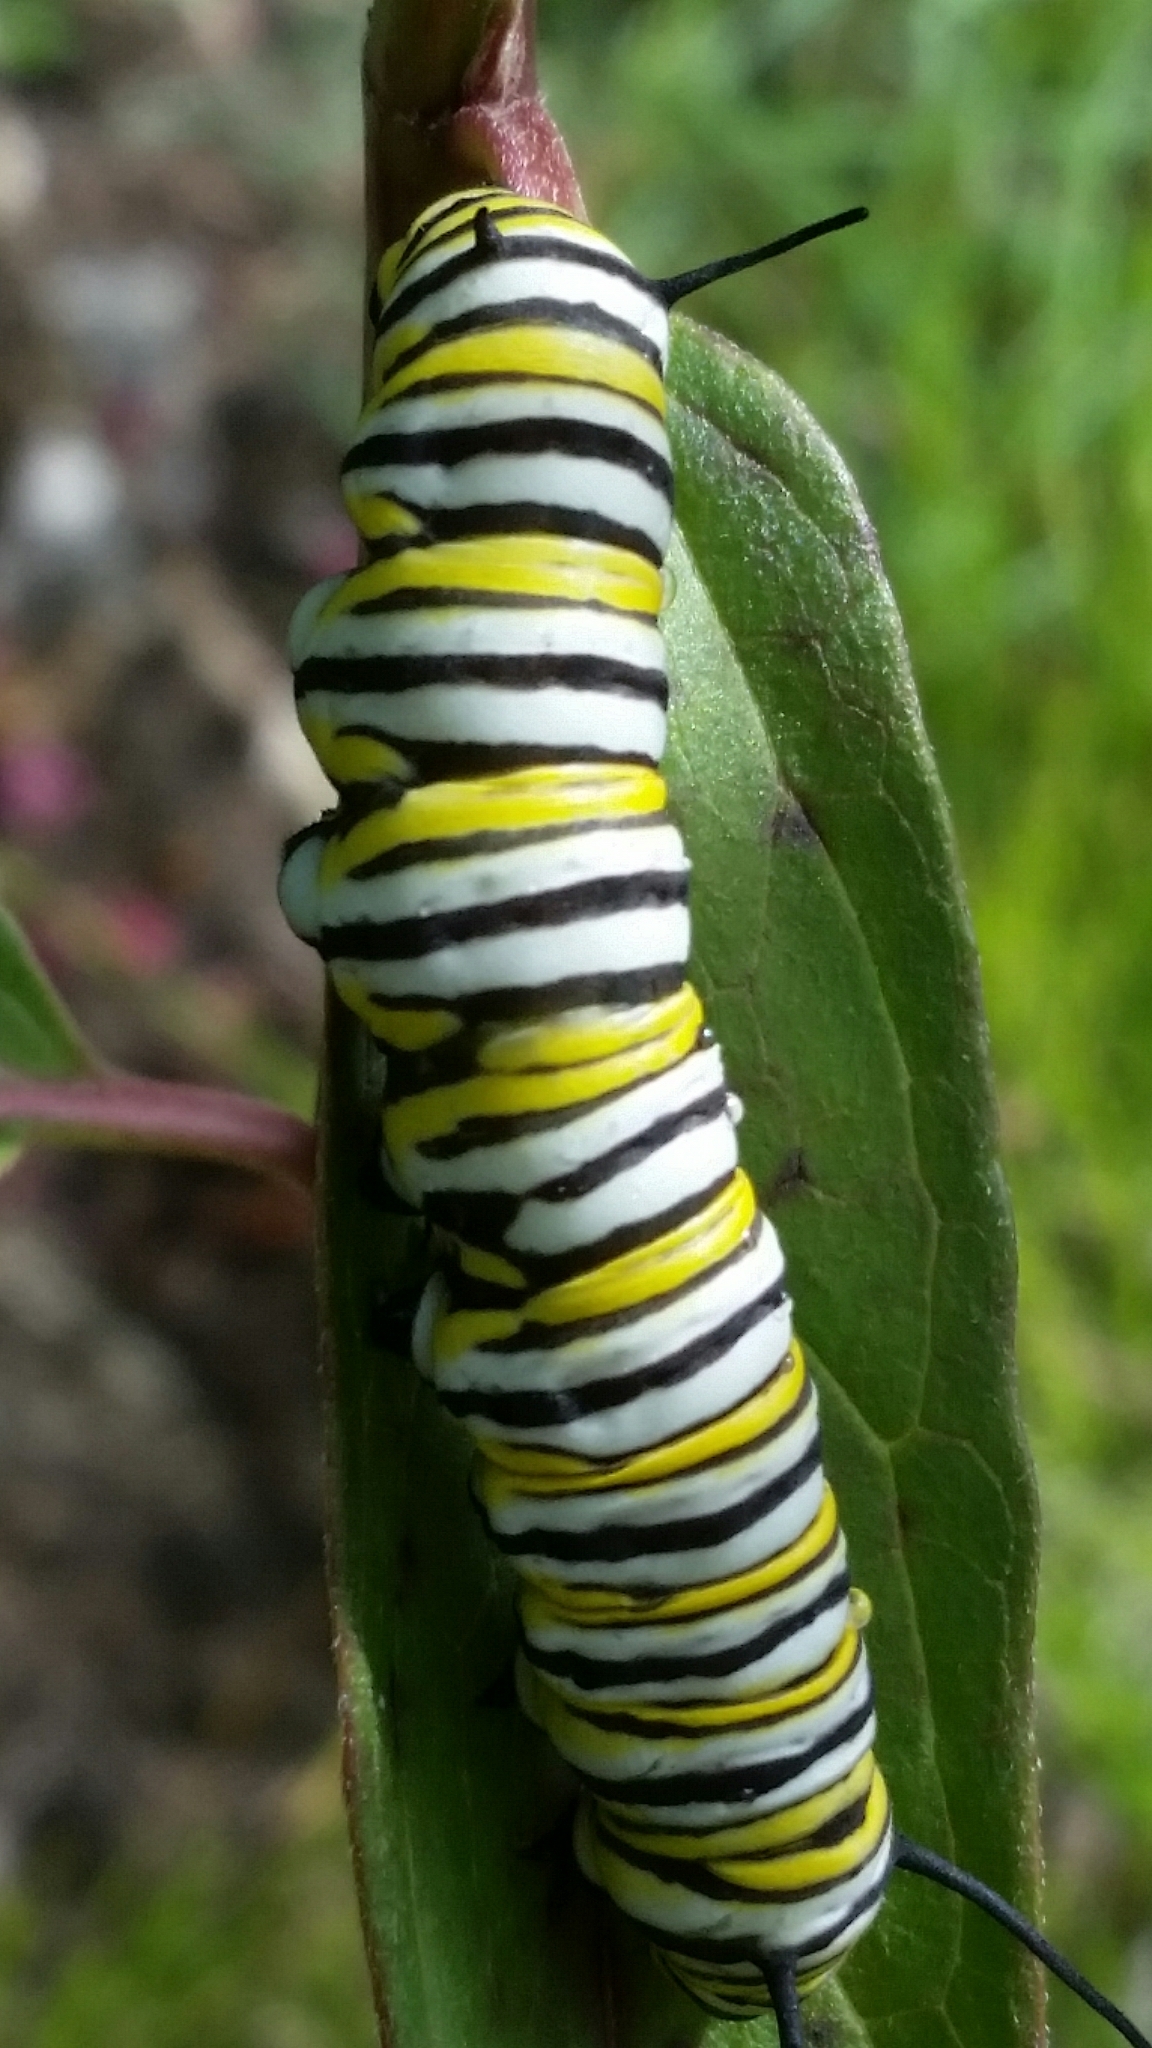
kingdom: Animalia
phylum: Arthropoda
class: Insecta
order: Lepidoptera
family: Nymphalidae
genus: Danaus
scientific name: Danaus plexippus
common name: Monarch
